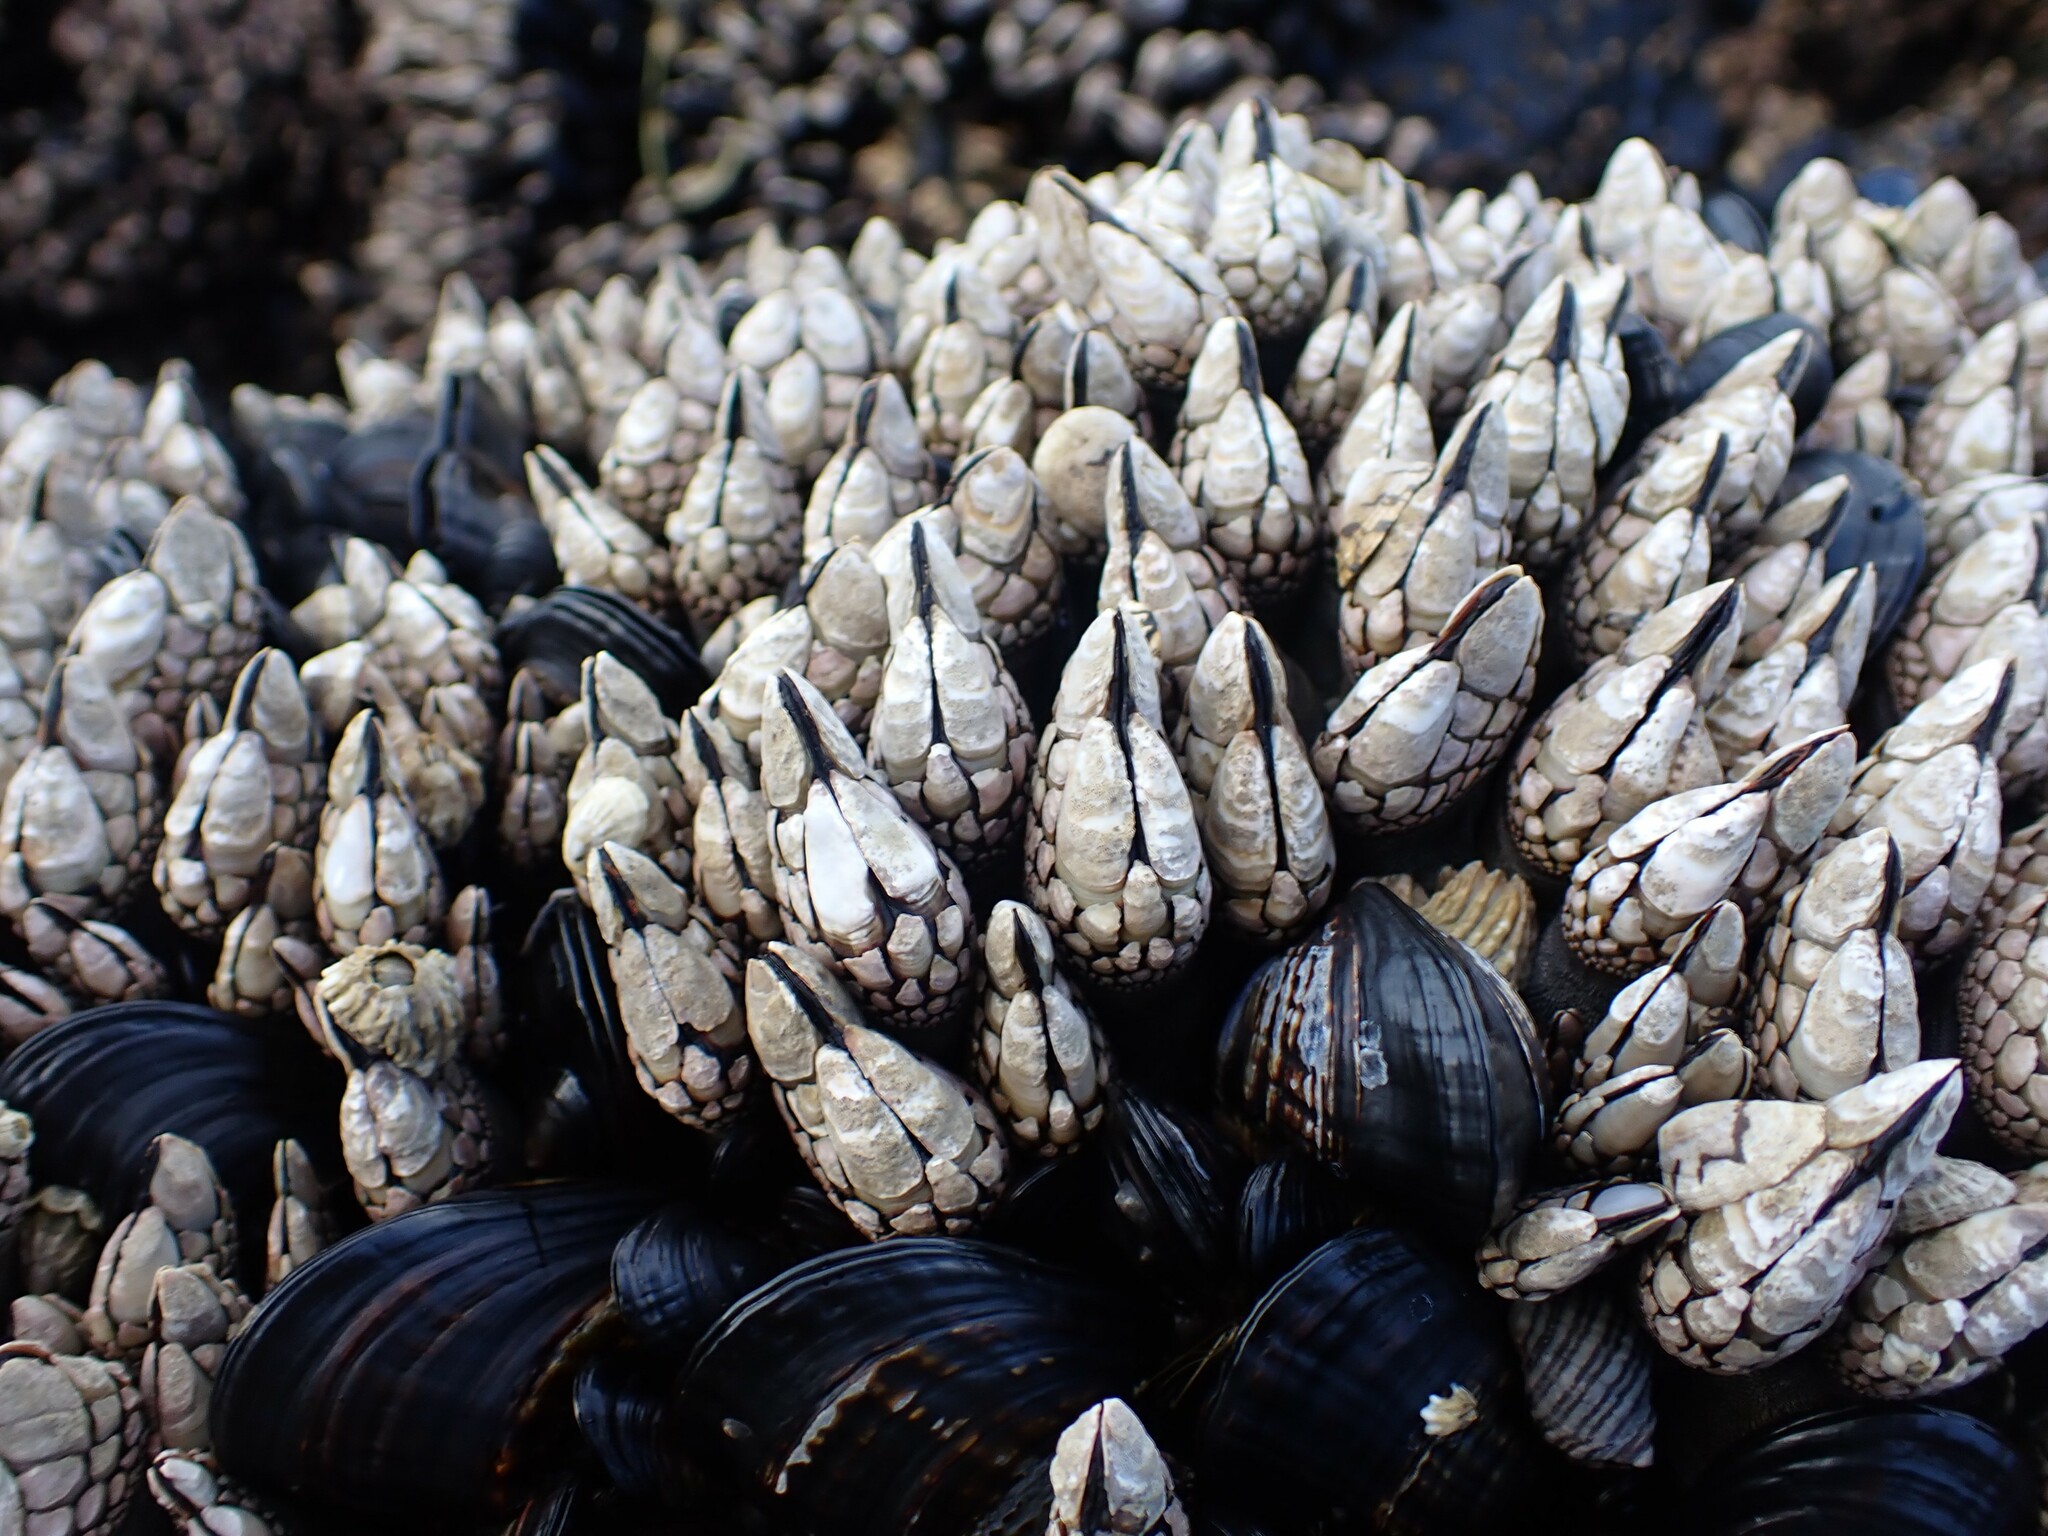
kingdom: Animalia
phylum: Arthropoda
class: Maxillopoda
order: Pedunculata
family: Pollicipedidae
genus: Pollicipes
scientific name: Pollicipes polymerus
